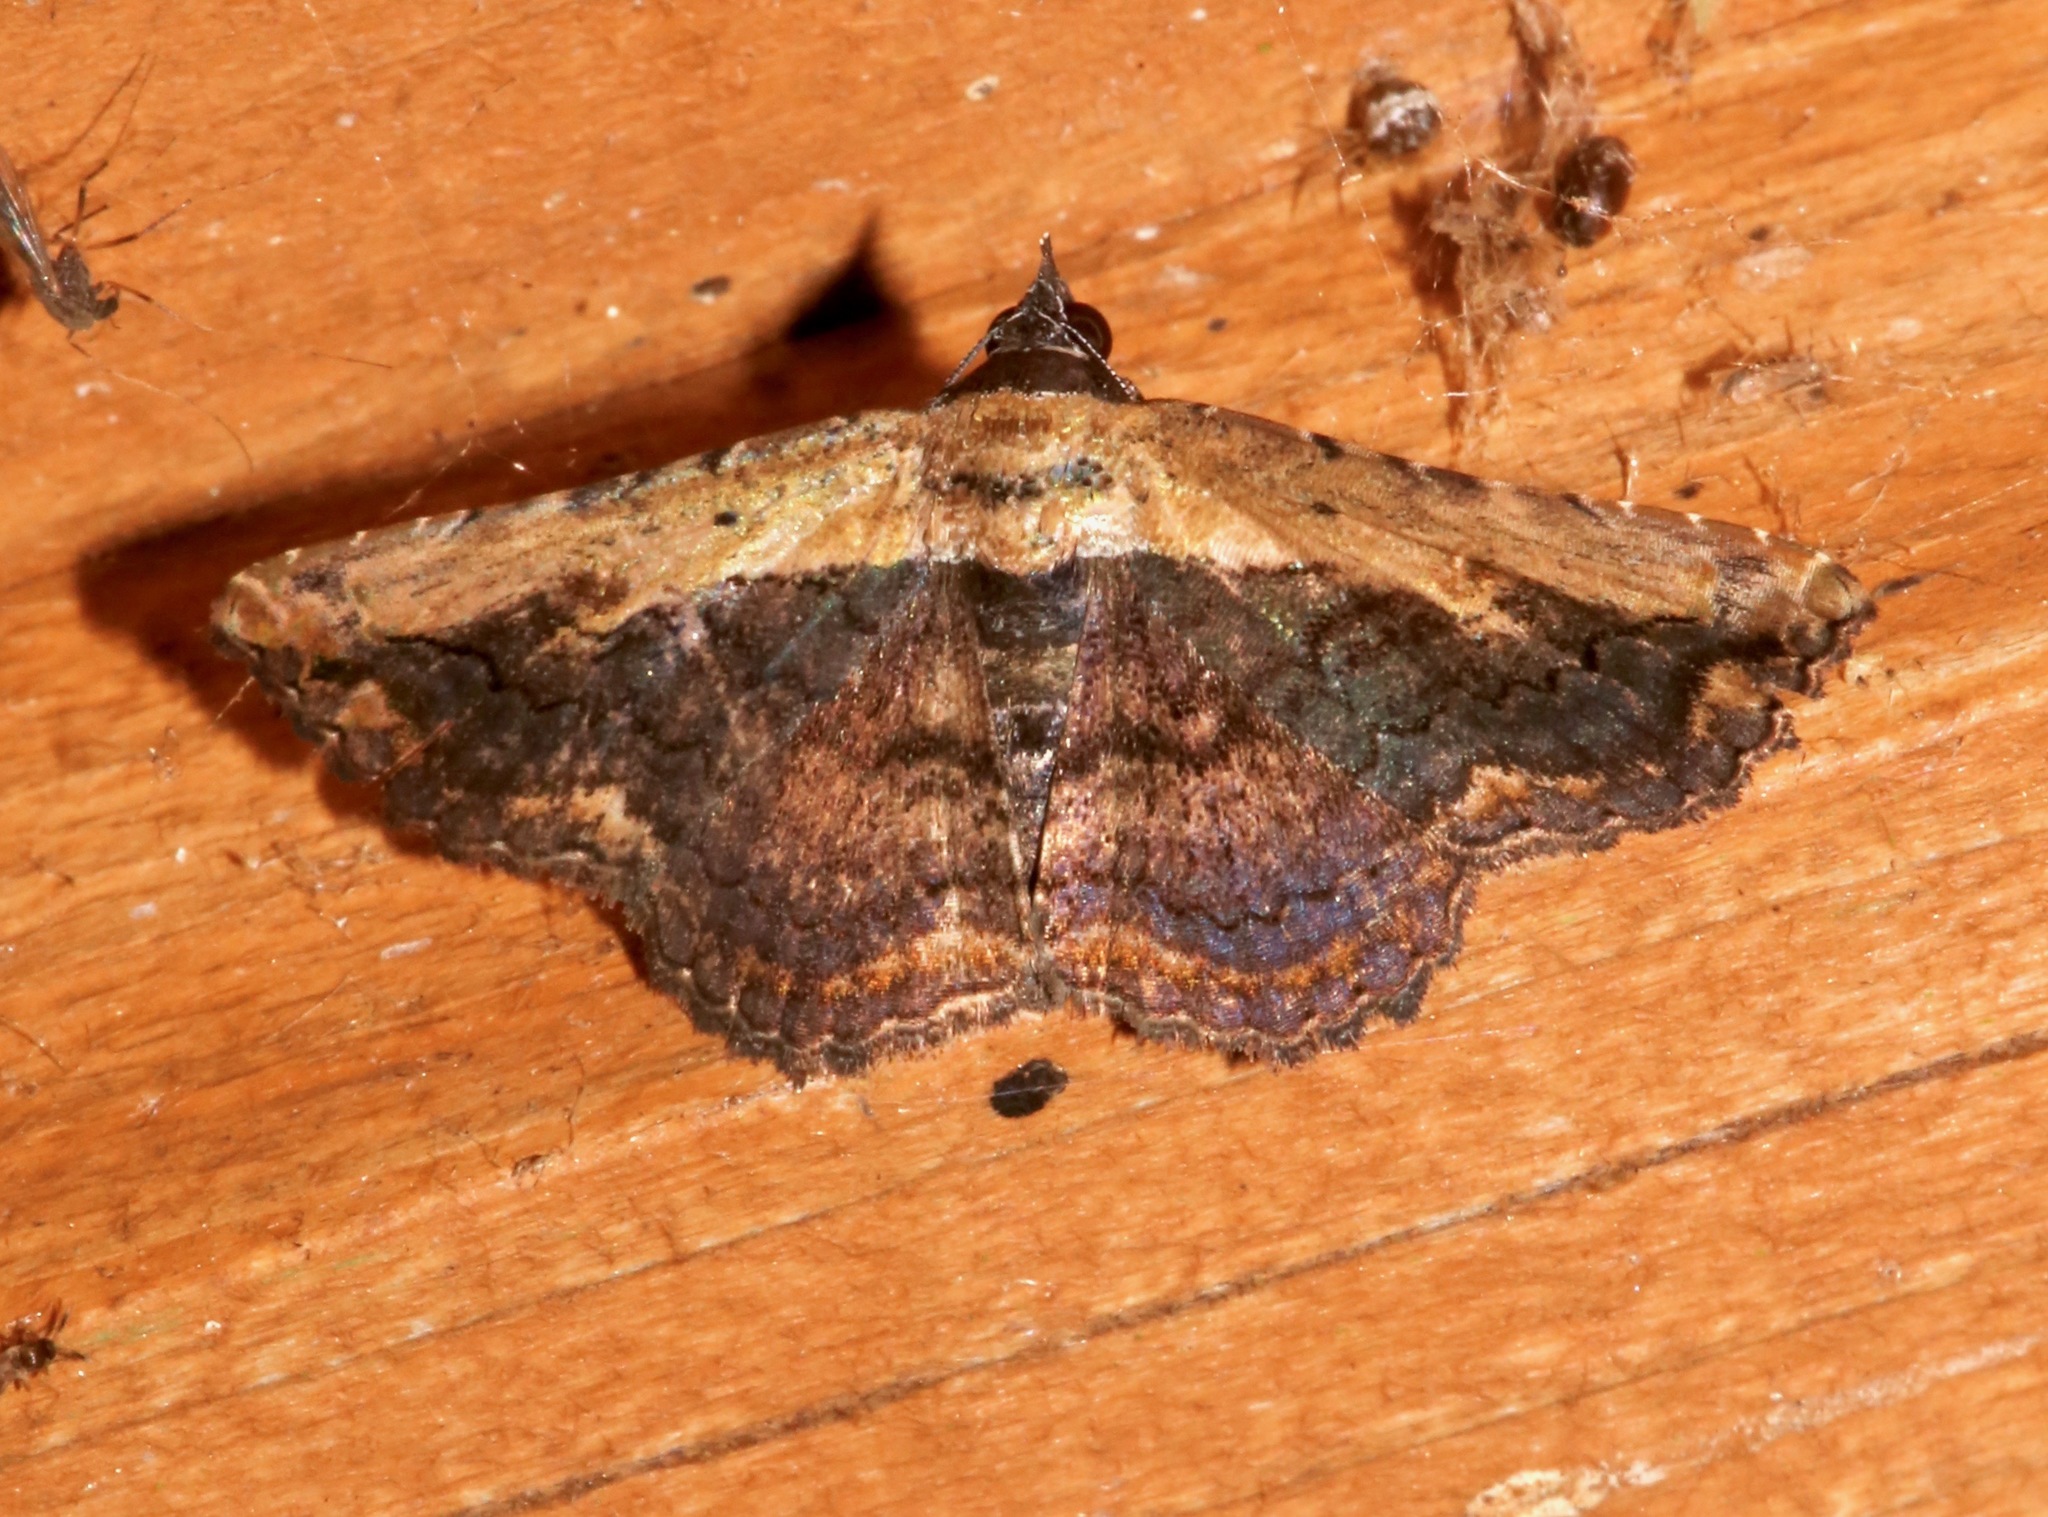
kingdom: Animalia
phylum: Arthropoda
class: Insecta
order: Lepidoptera
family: Erebidae
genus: Selenisa
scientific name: Selenisa sueroides
